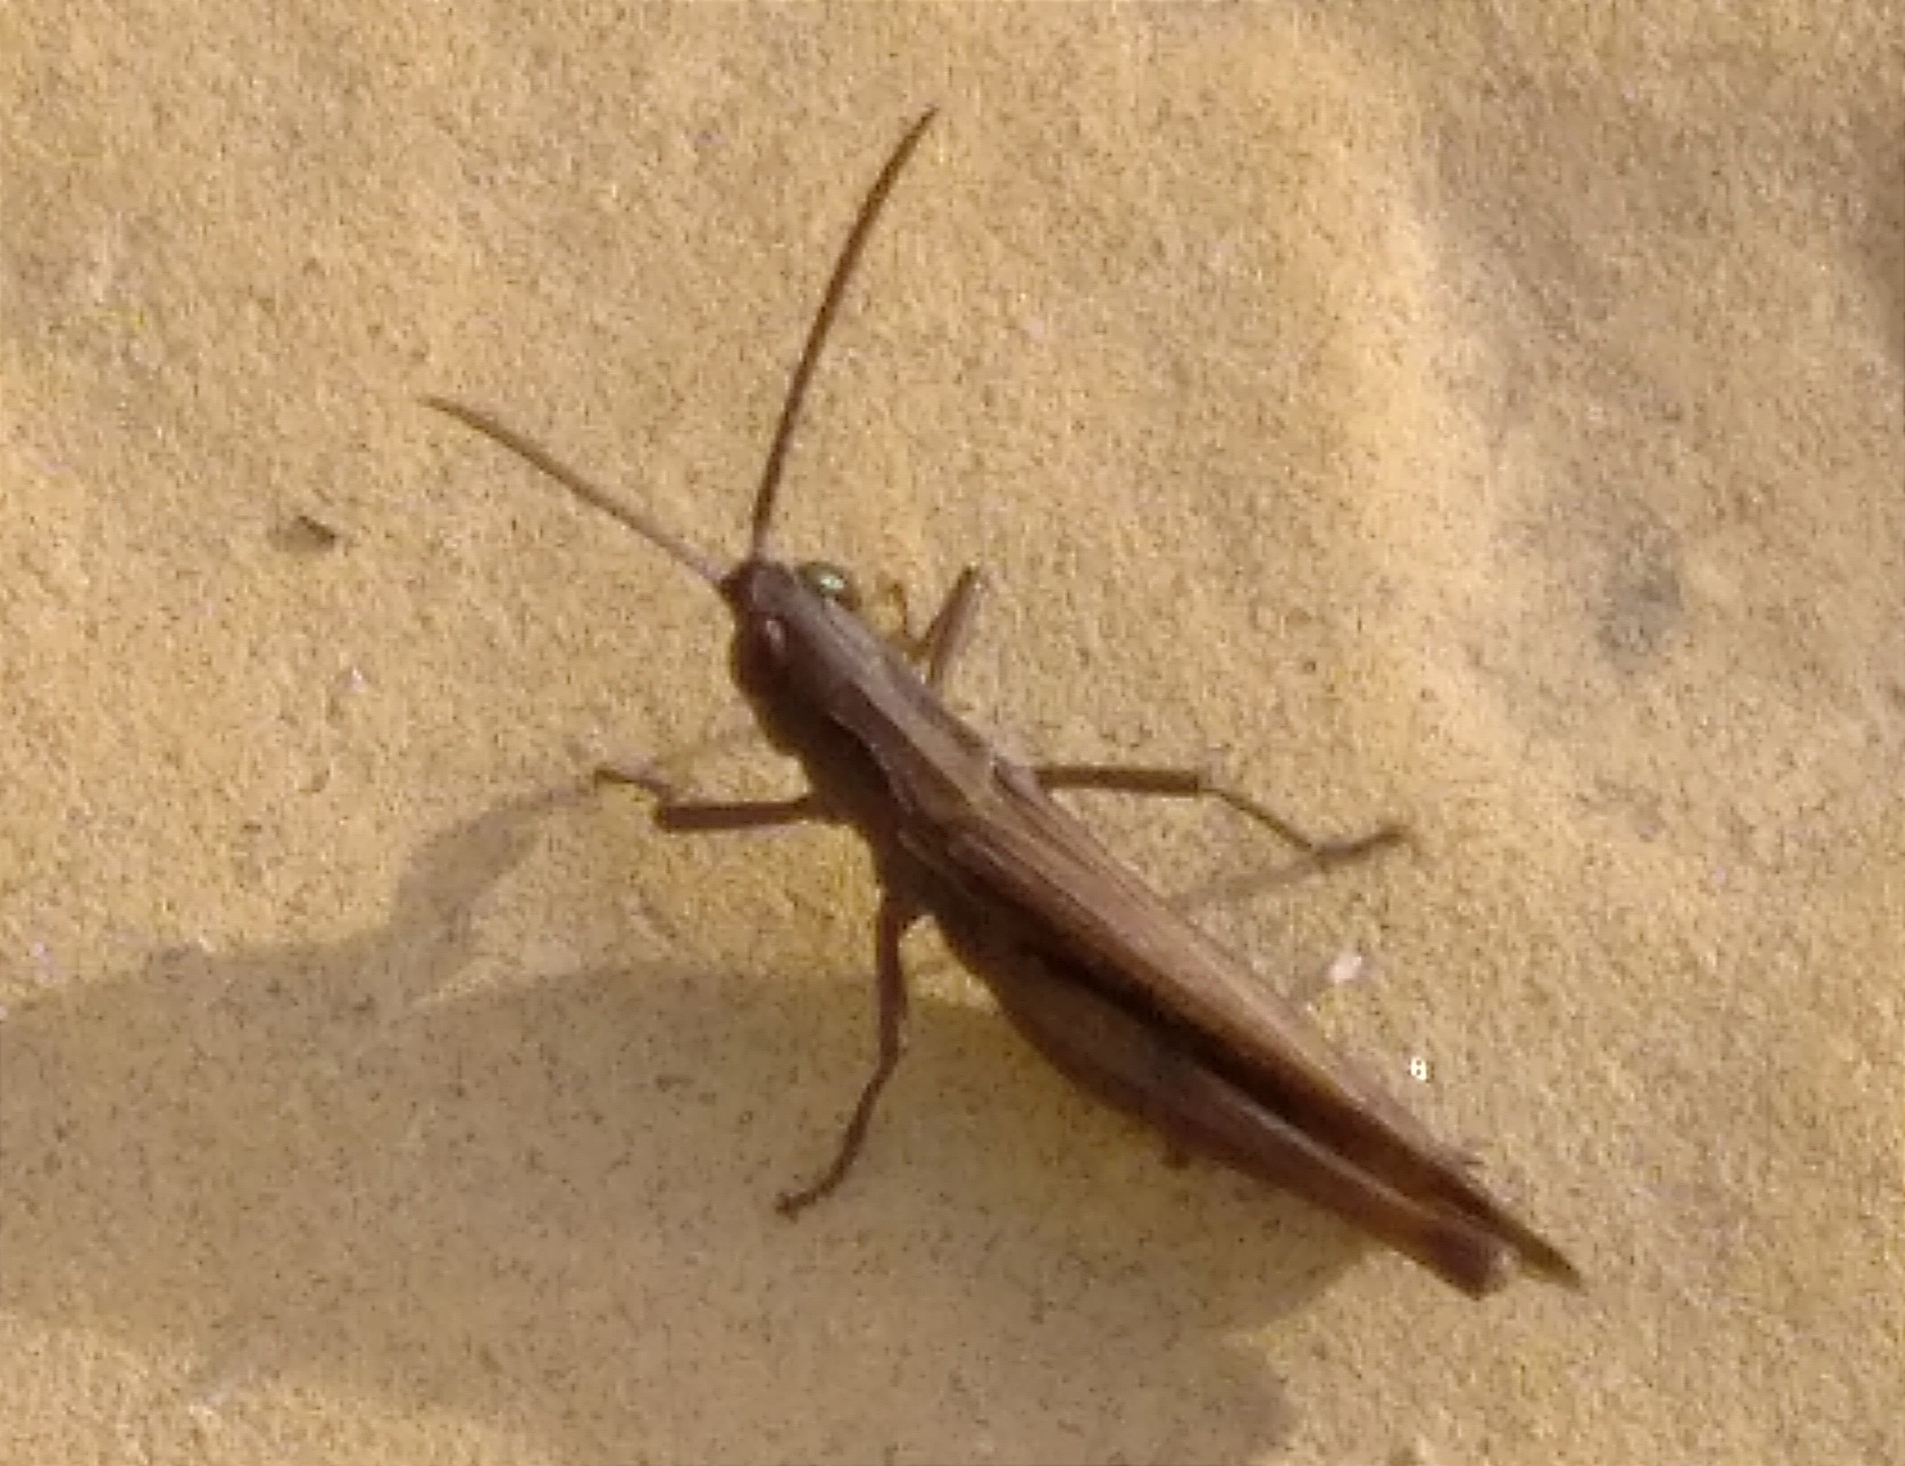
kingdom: Animalia
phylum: Arthropoda
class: Insecta
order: Orthoptera
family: Acrididae
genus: Omocestus
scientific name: Omocestus rufipes
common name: Woodland grasshopper
